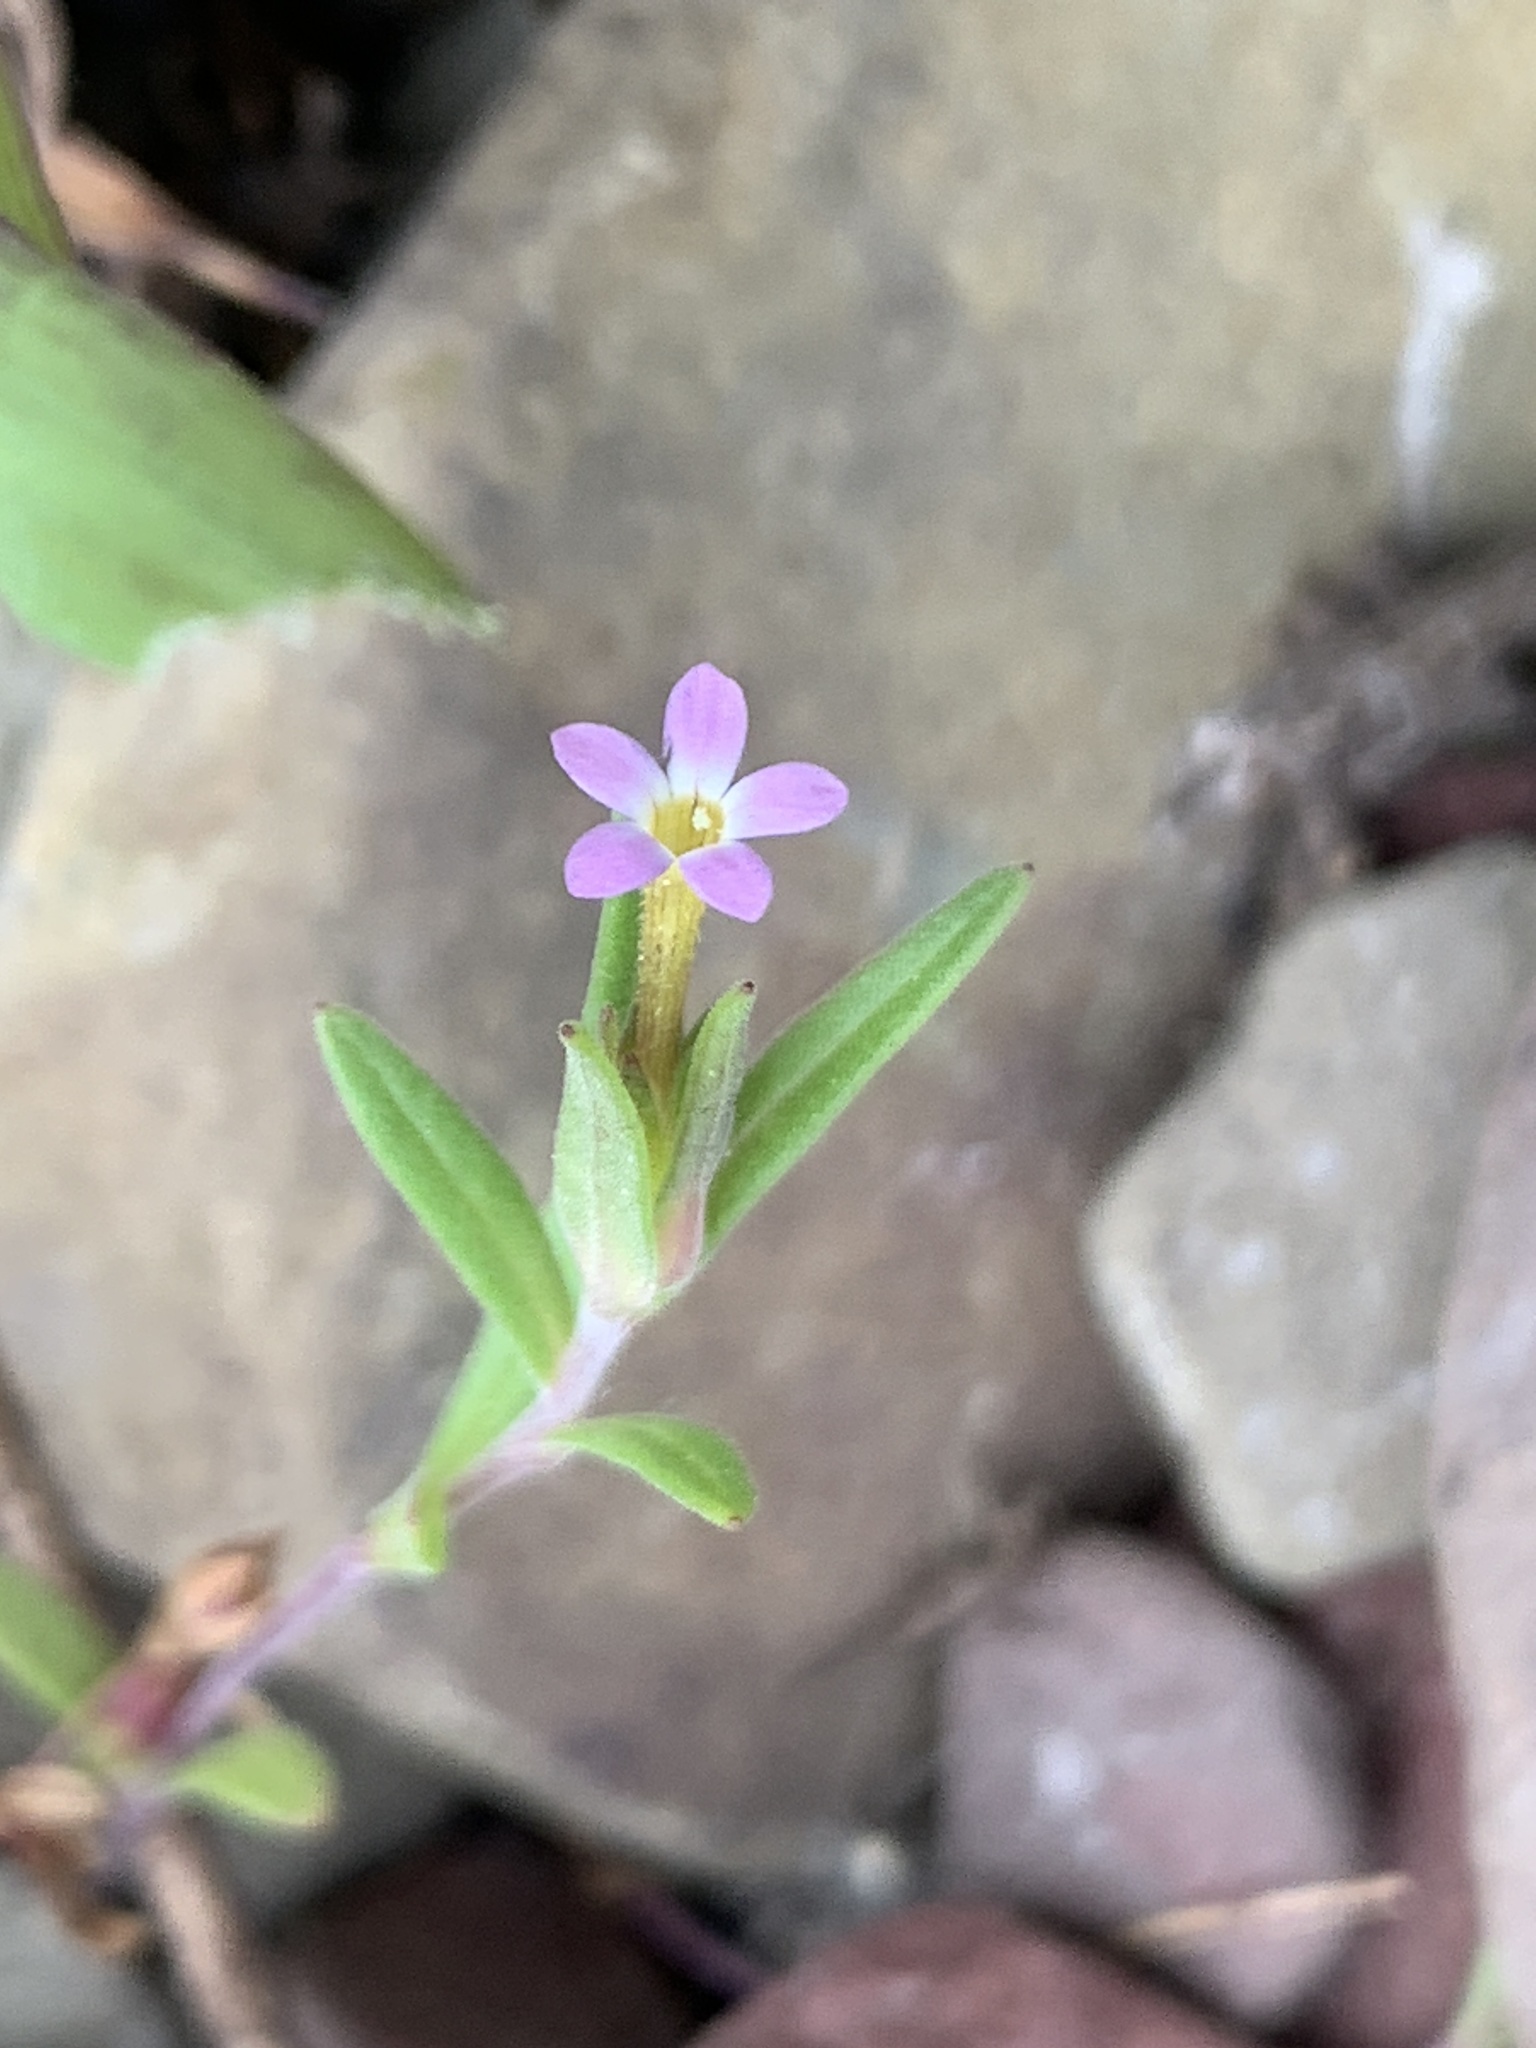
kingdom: Plantae
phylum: Tracheophyta
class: Magnoliopsida
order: Ericales
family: Polemoniaceae
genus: Collomia
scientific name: Collomia linearis
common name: Tiny trumpet
